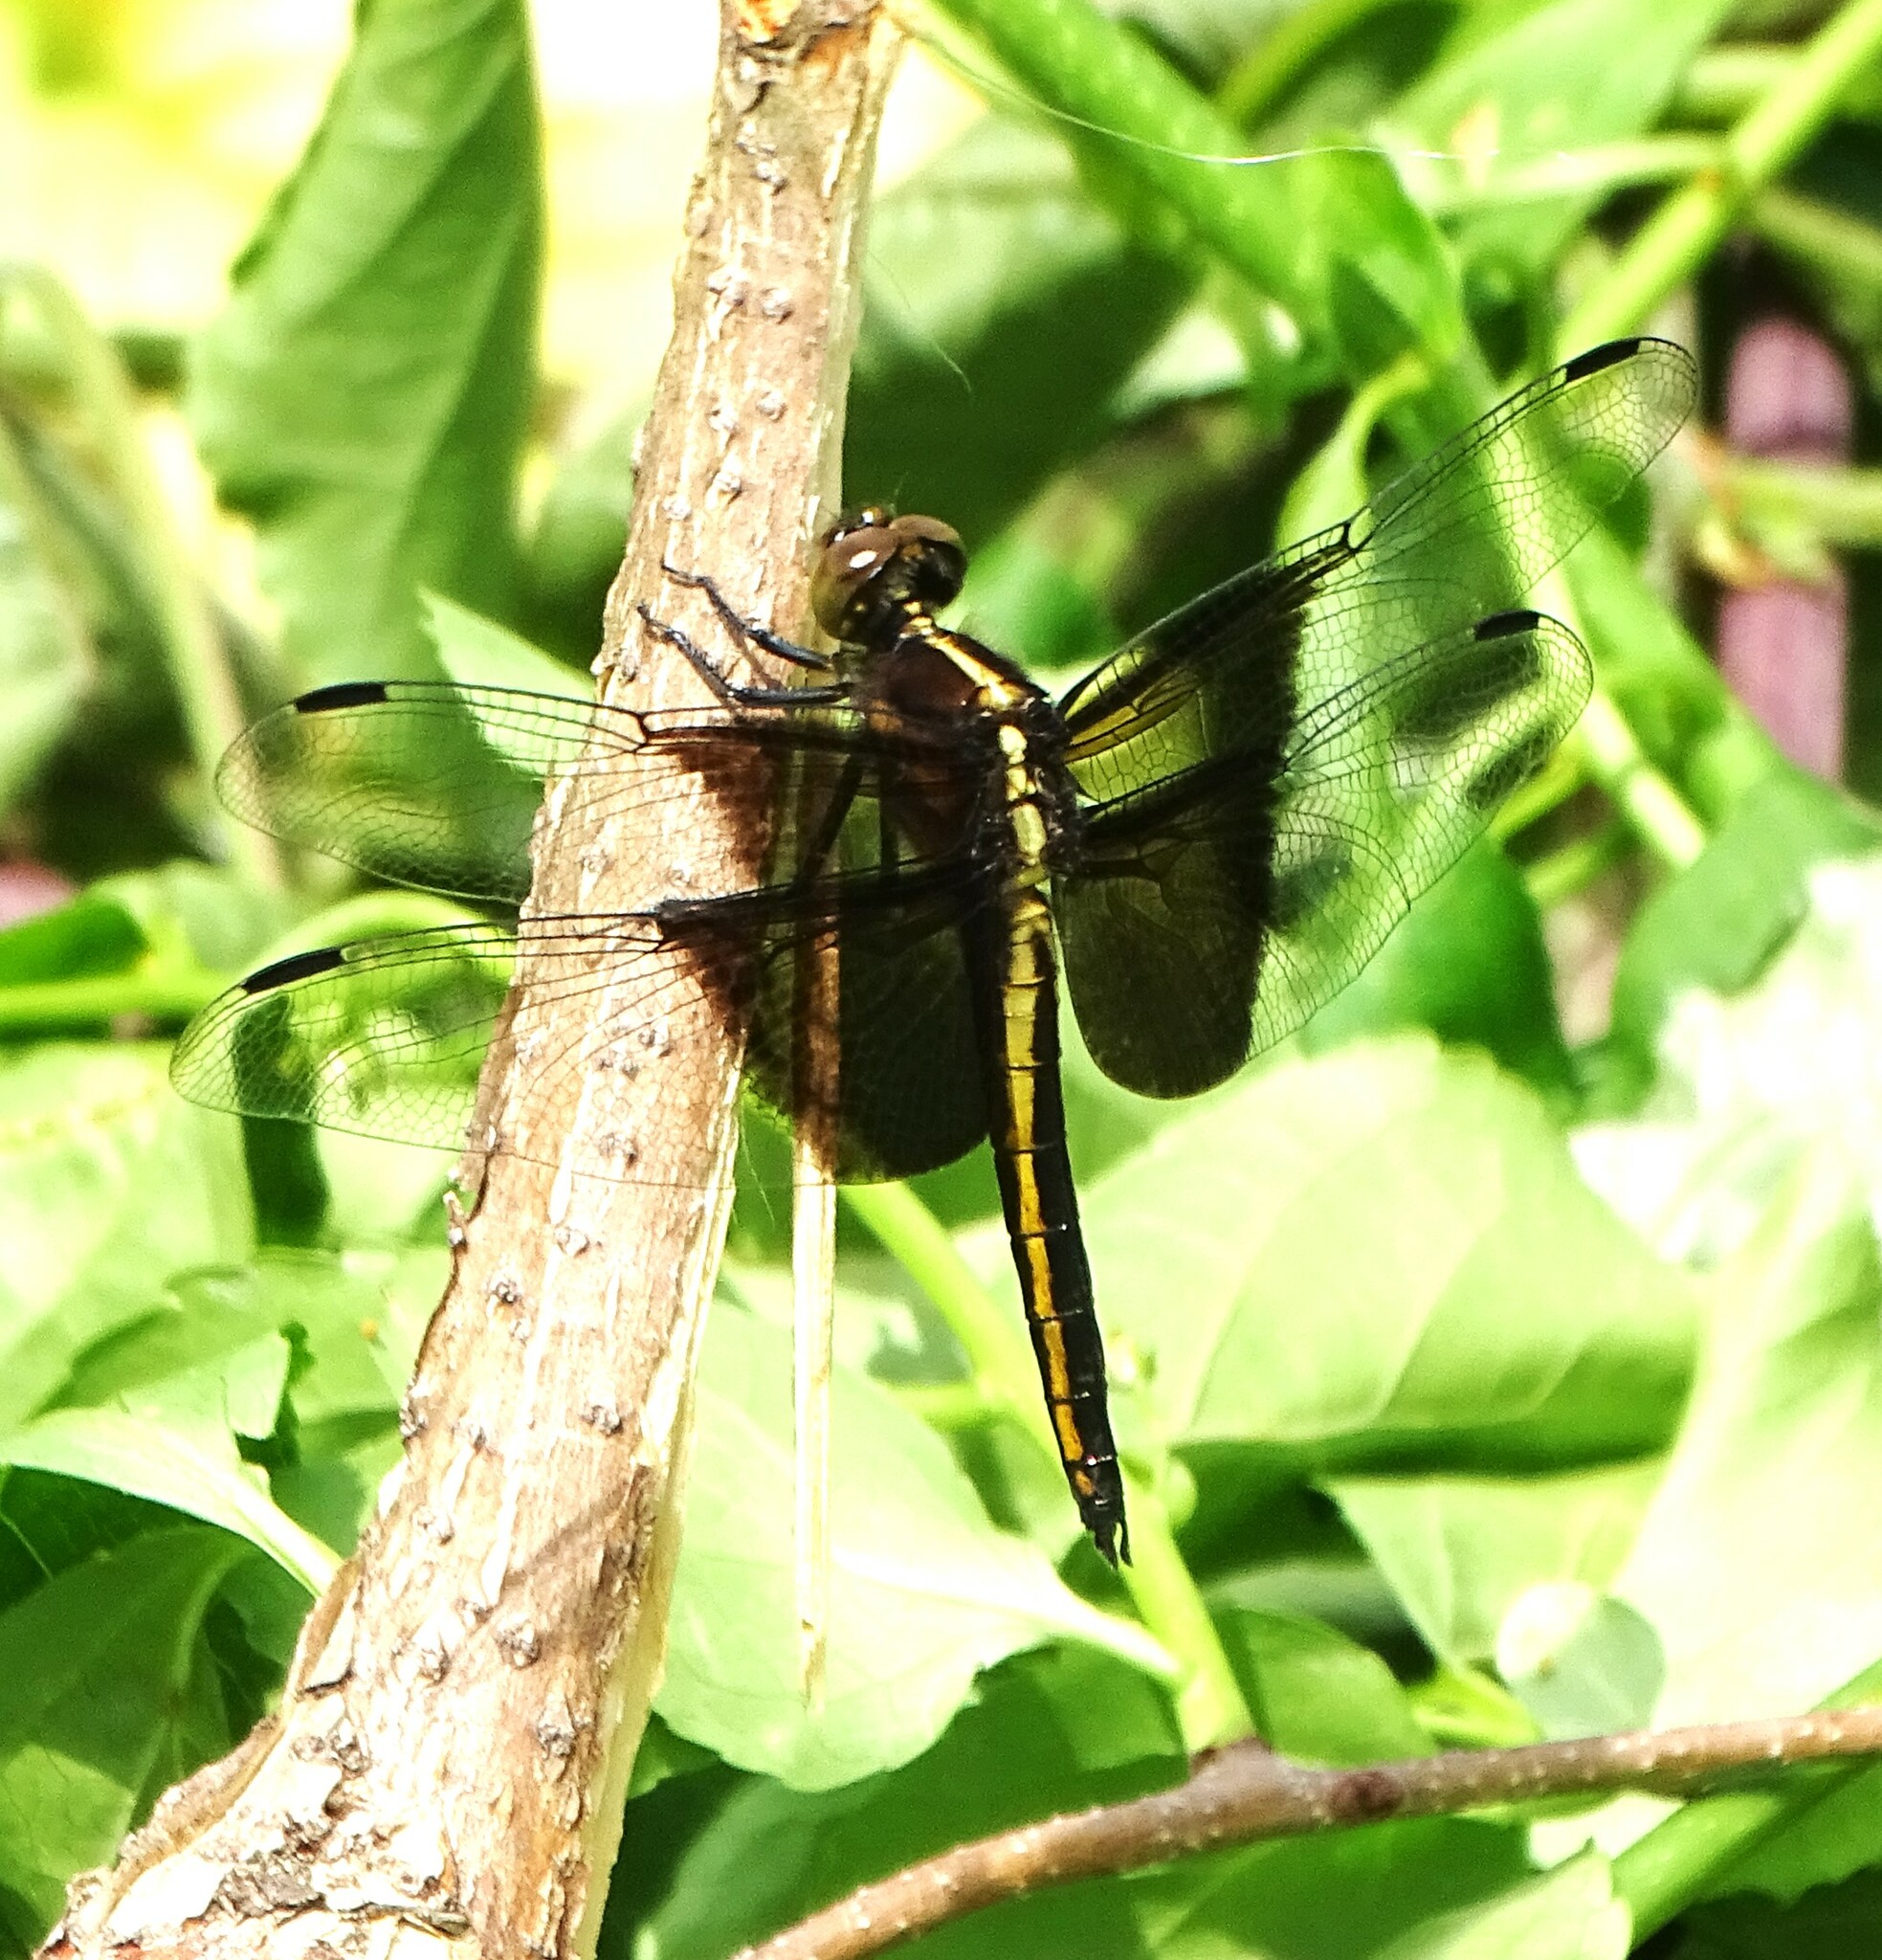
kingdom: Animalia
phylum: Arthropoda
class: Insecta
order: Odonata
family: Libellulidae
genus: Libellula
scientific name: Libellula luctuosa
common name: Widow skimmer
